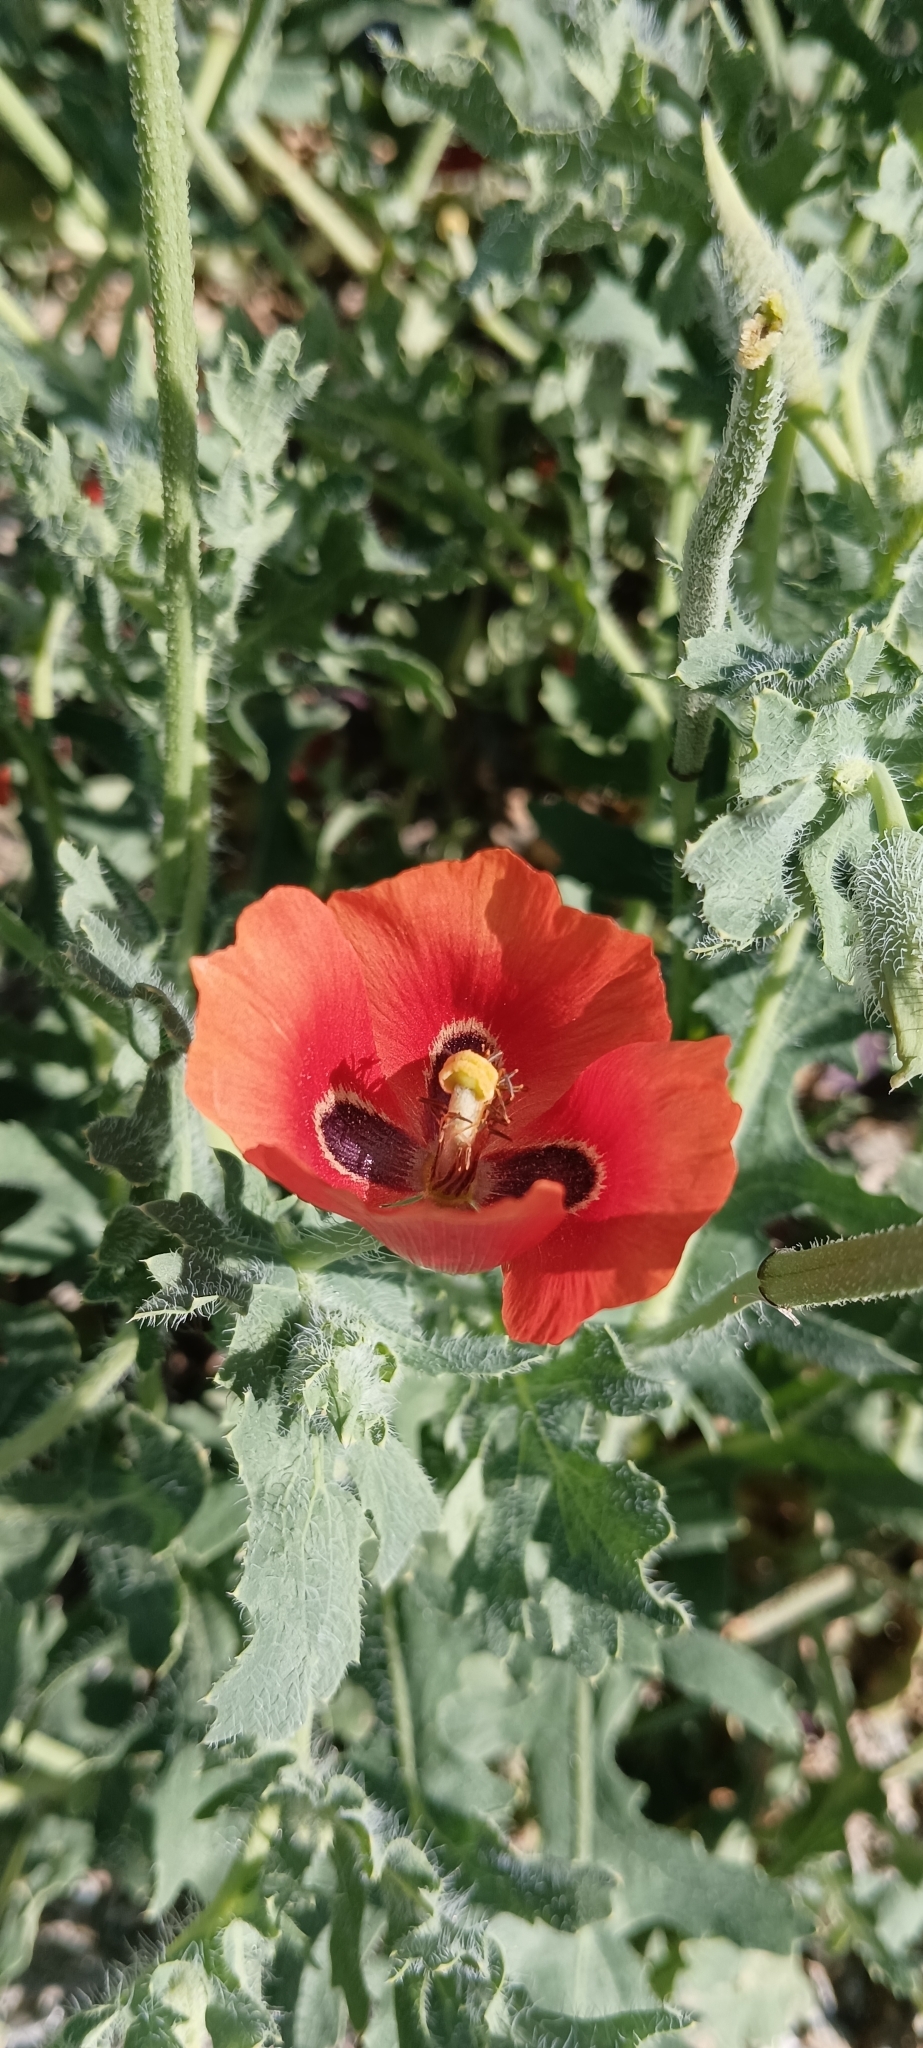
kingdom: Plantae
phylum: Tracheophyta
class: Magnoliopsida
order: Ranunculales
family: Papaveraceae
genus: Glaucium
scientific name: Glaucium corniculatum
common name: Red horned-poppy
